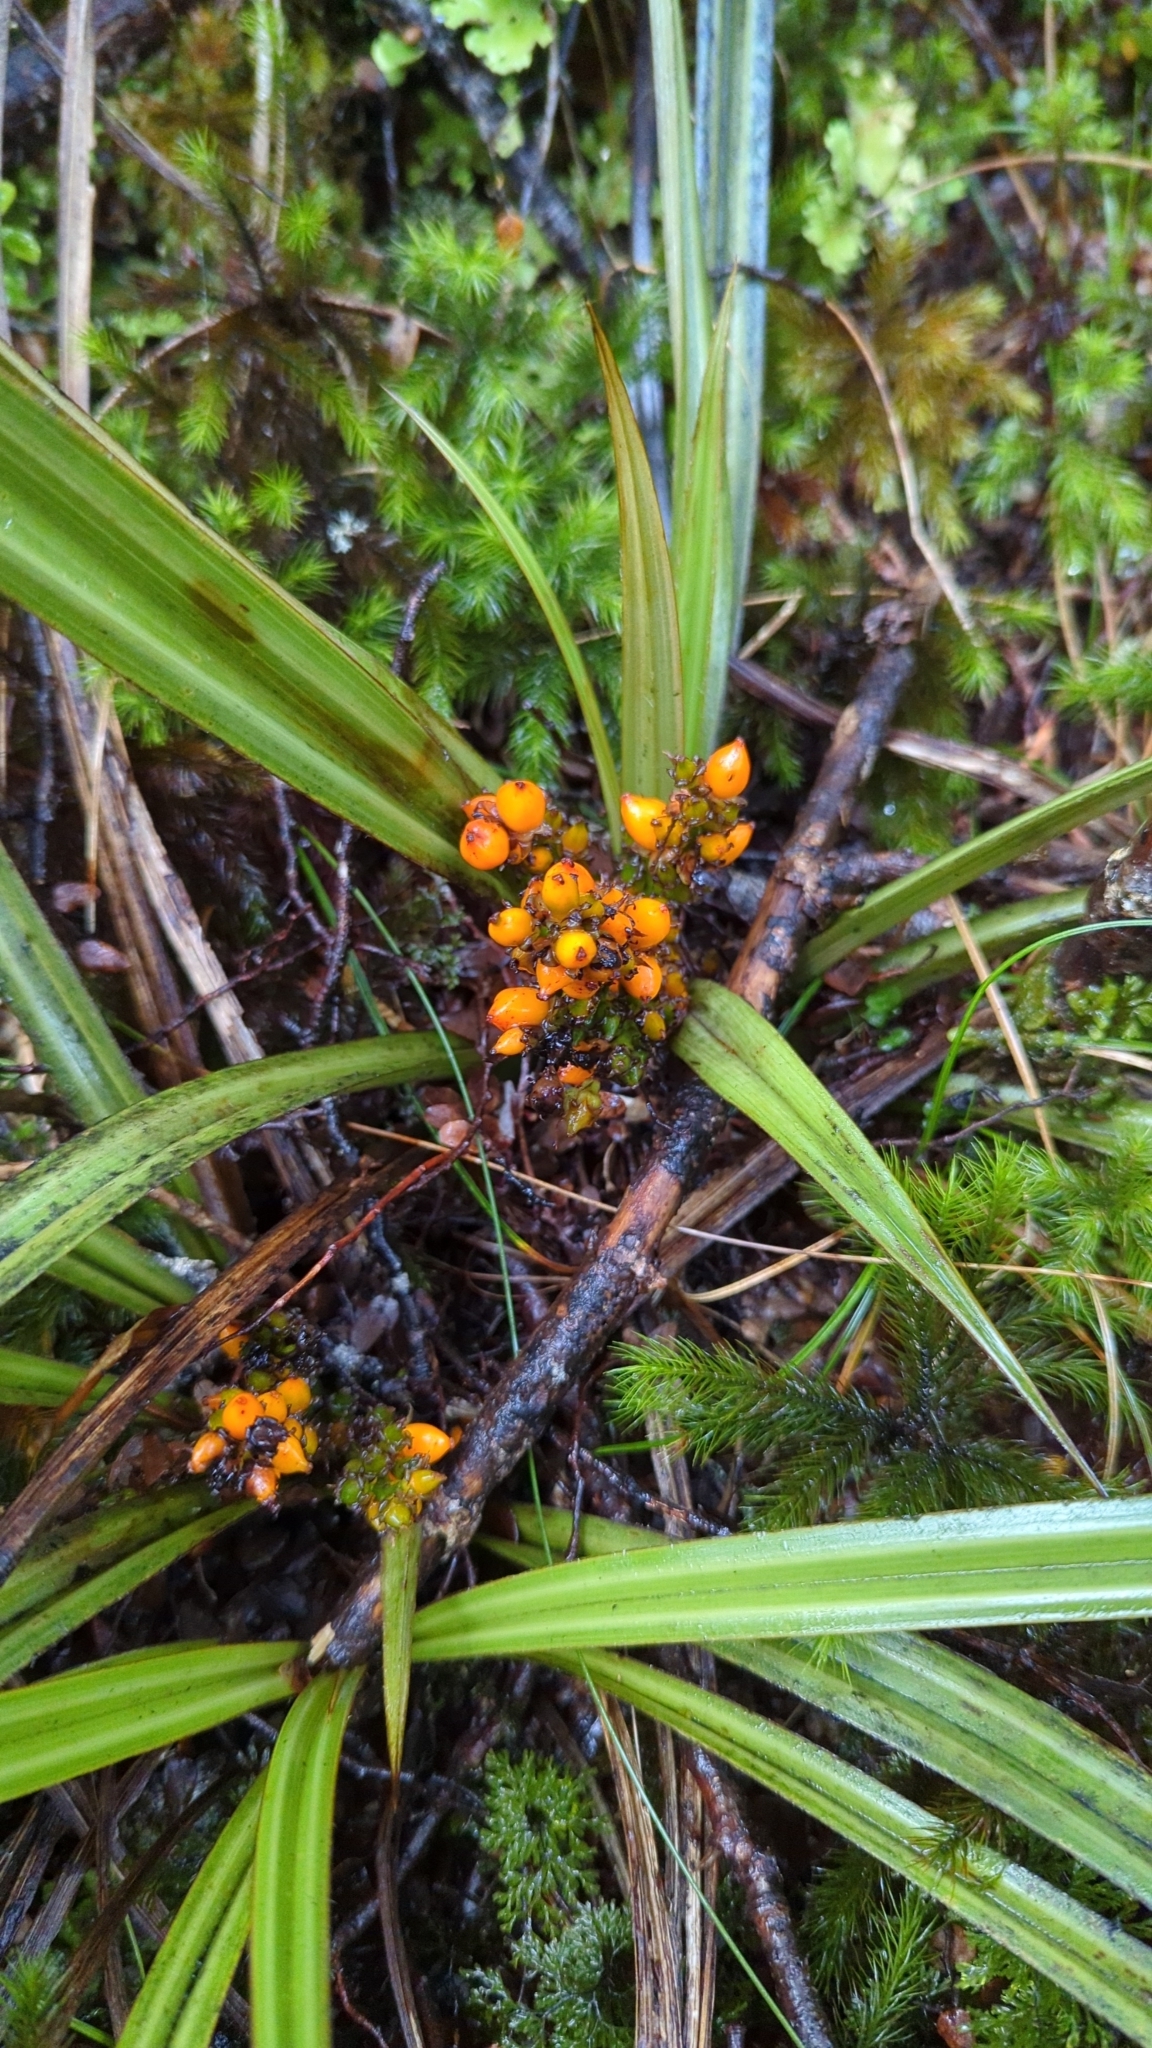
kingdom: Plantae
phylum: Tracheophyta
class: Liliopsida
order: Asparagales
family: Asteliaceae
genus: Astelia
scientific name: Astelia fragrans
